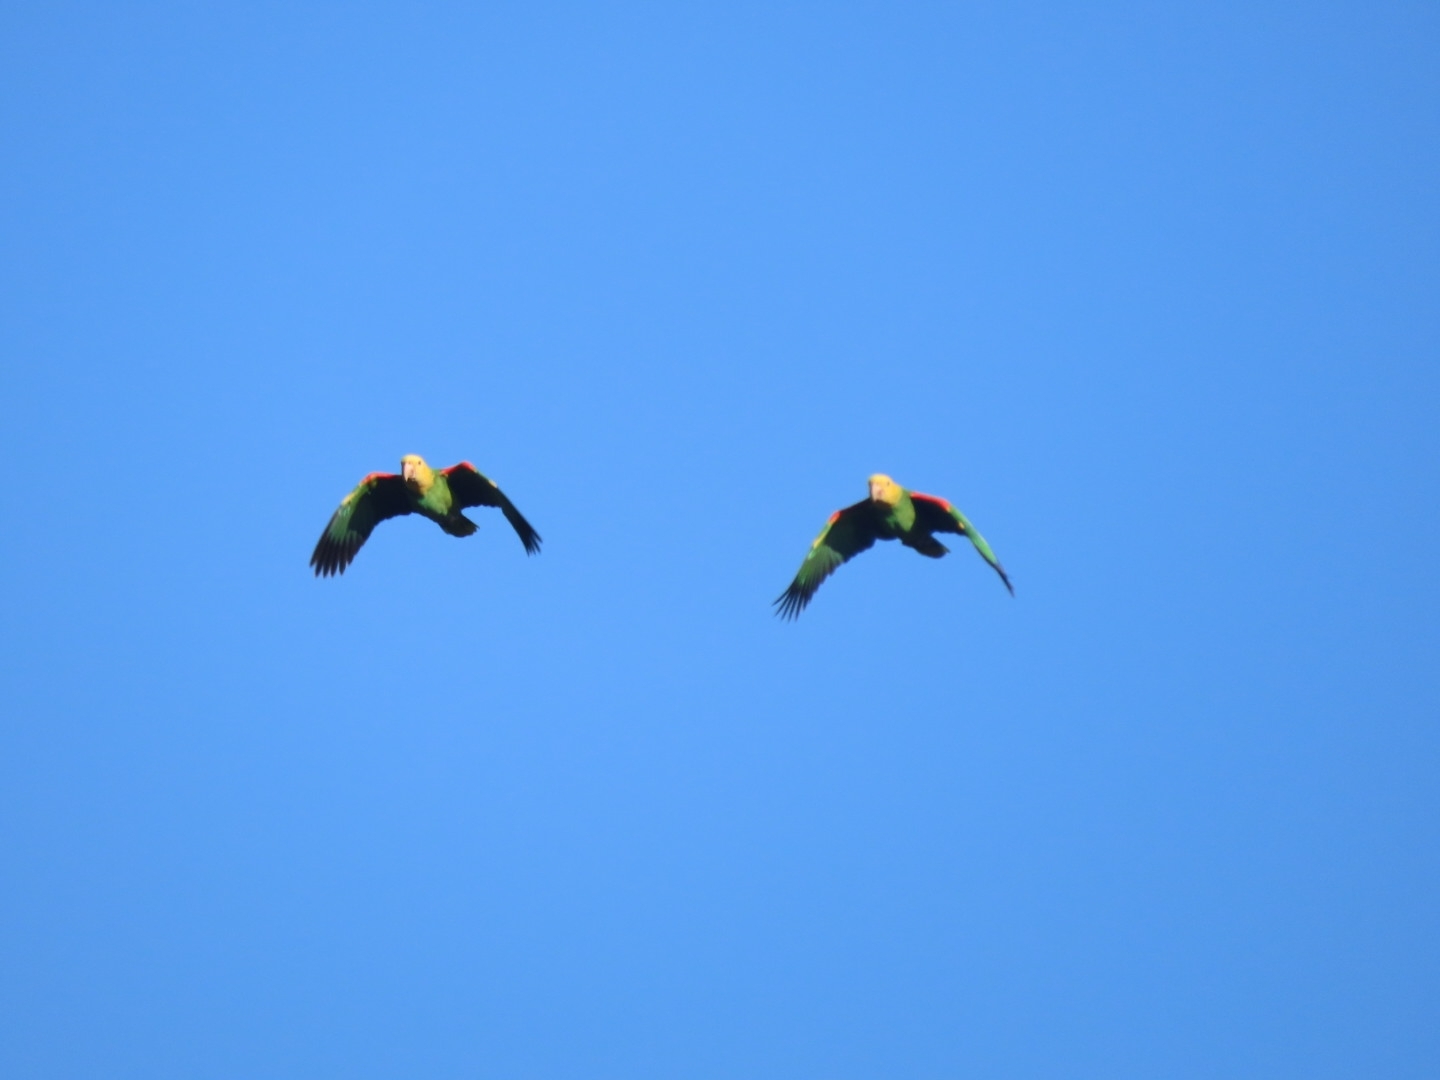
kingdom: Animalia
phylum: Chordata
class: Aves
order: Psittaciformes
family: Psittacidae
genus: Amazona
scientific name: Amazona oratrix
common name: Yellow-headed amazon
